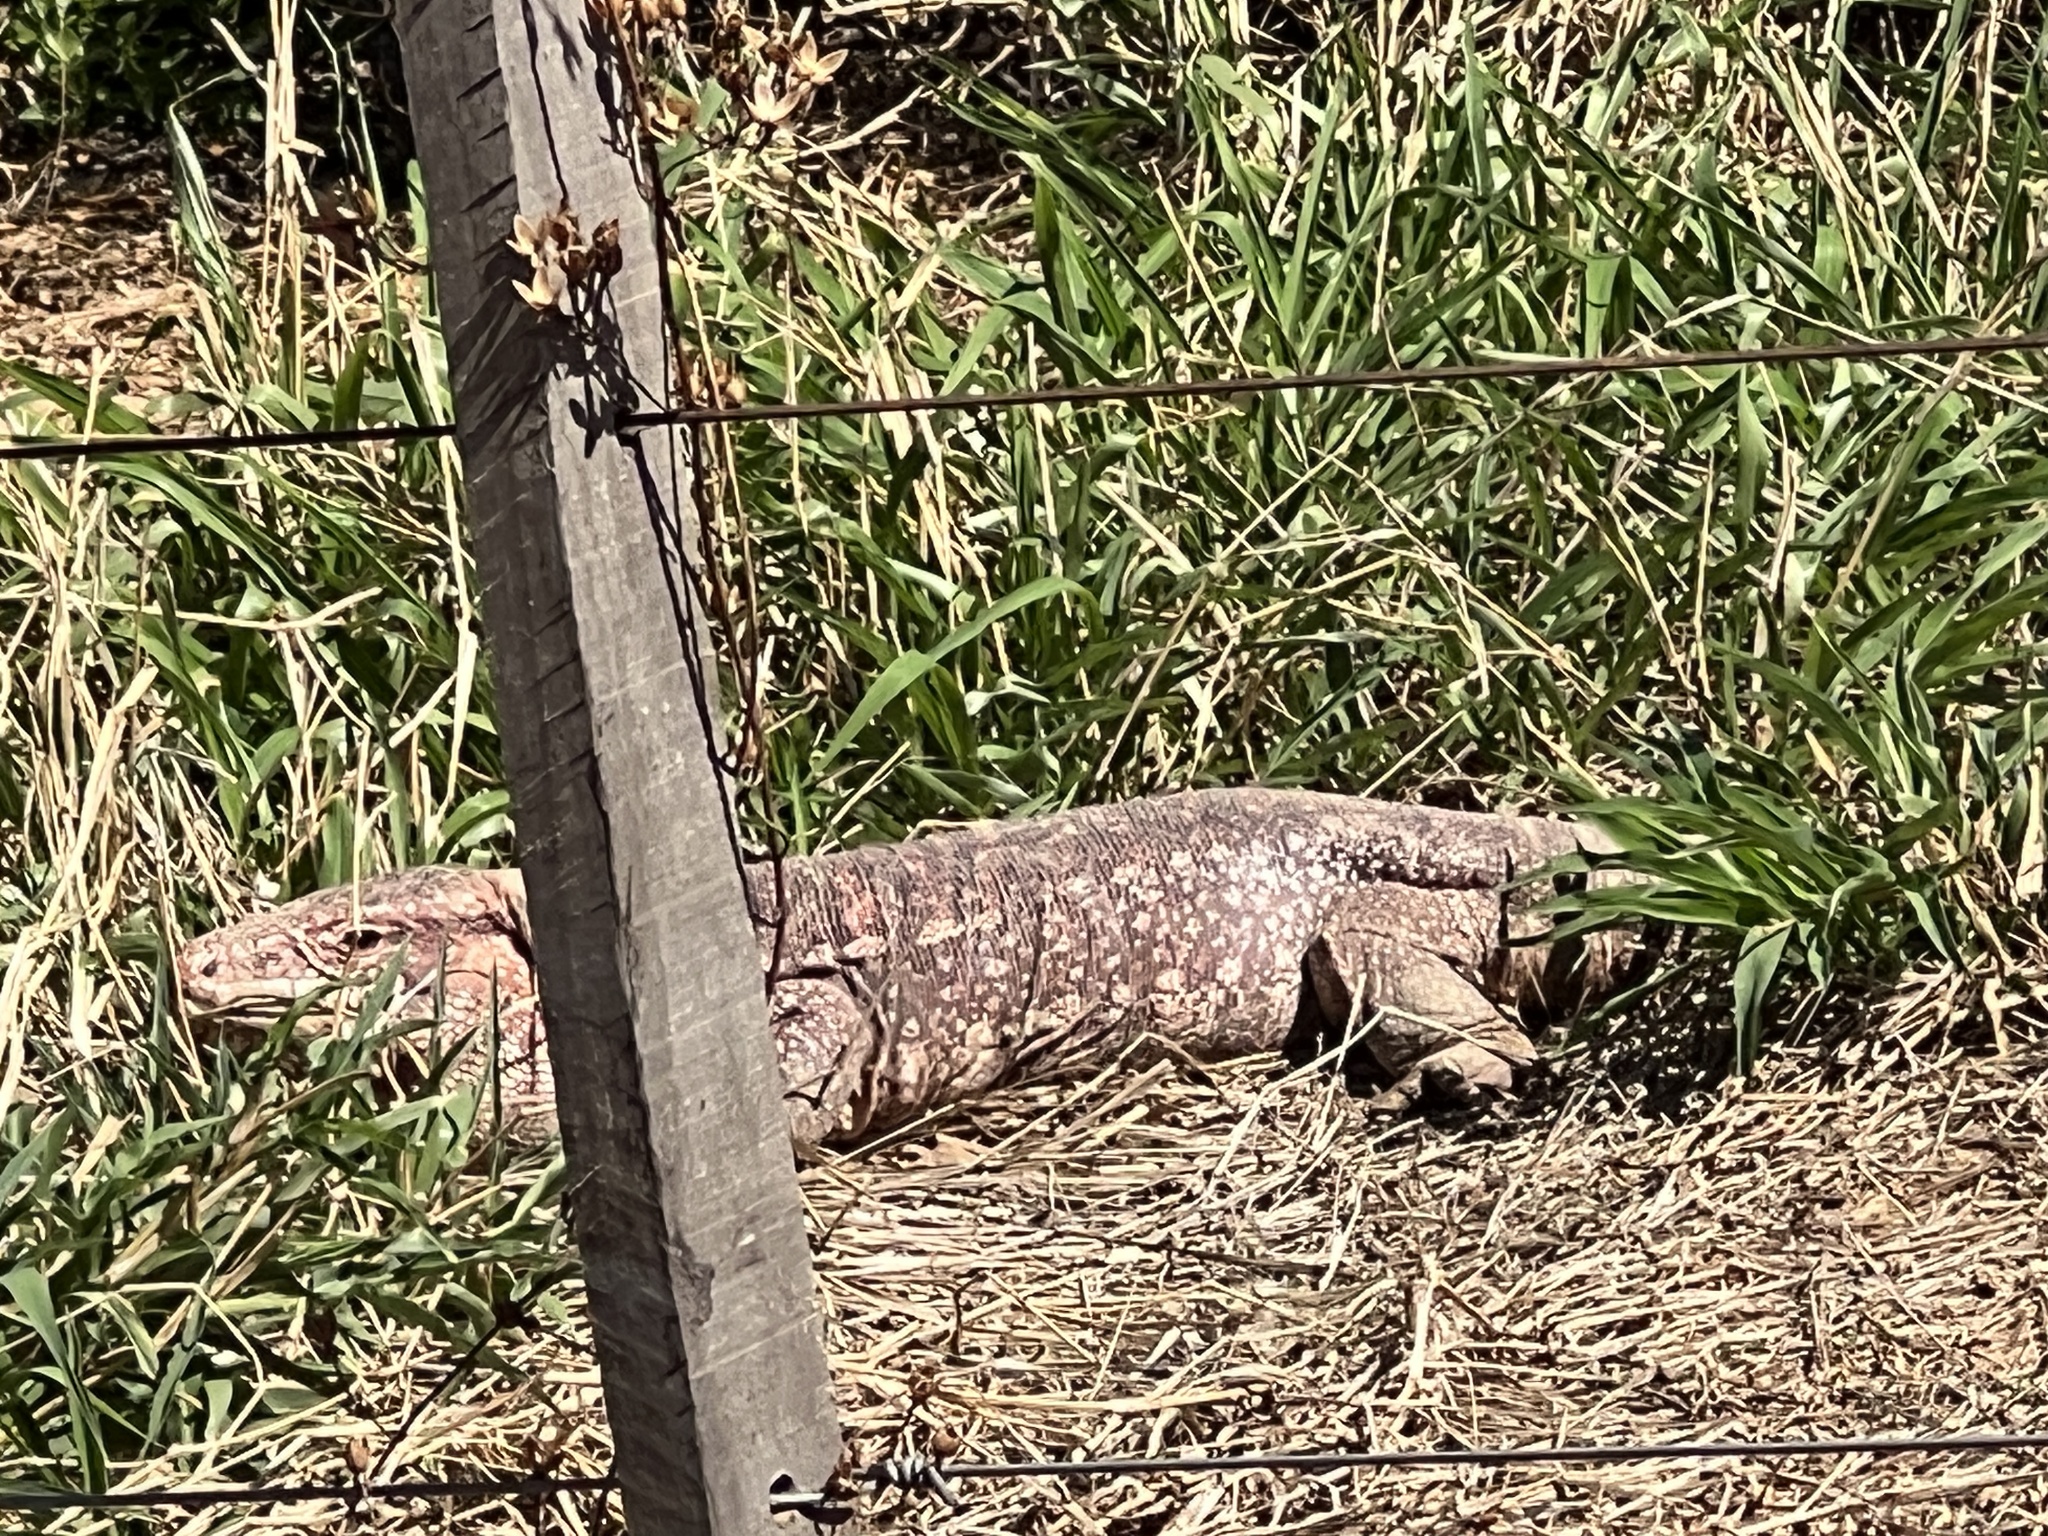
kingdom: Animalia
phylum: Chordata
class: Squamata
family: Teiidae
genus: Salvator
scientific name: Salvator rufescens
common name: Red tegu
